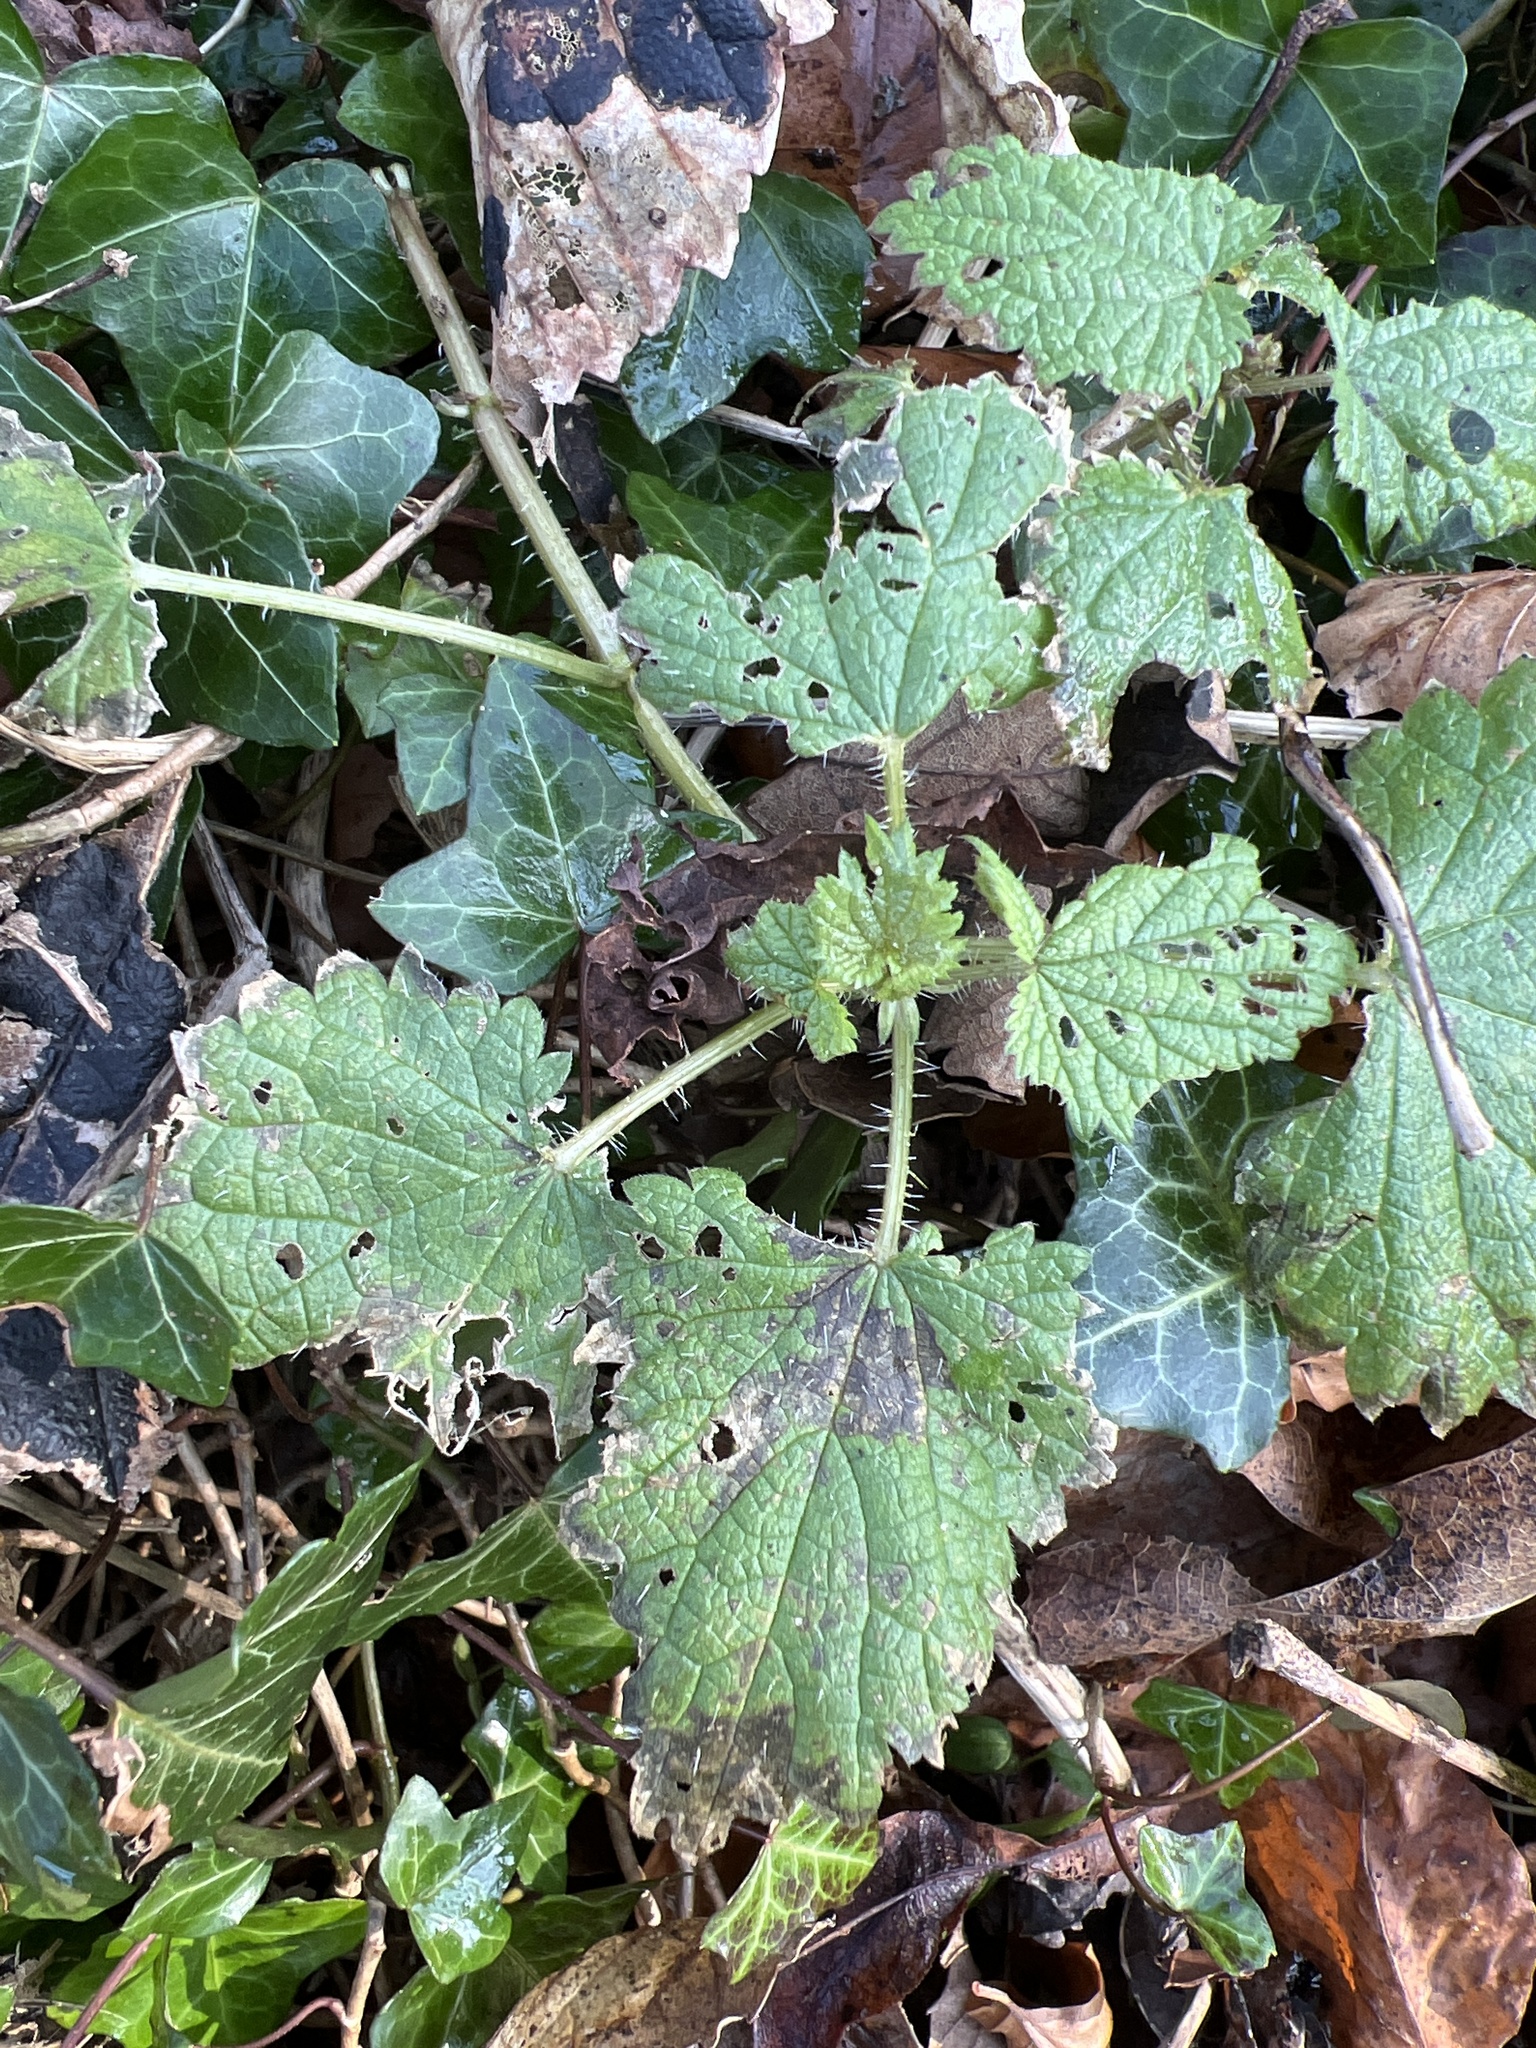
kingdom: Plantae
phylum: Tracheophyta
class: Magnoliopsida
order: Rosales
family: Urticaceae
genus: Urtica
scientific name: Urtica dioica
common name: Common nettle
